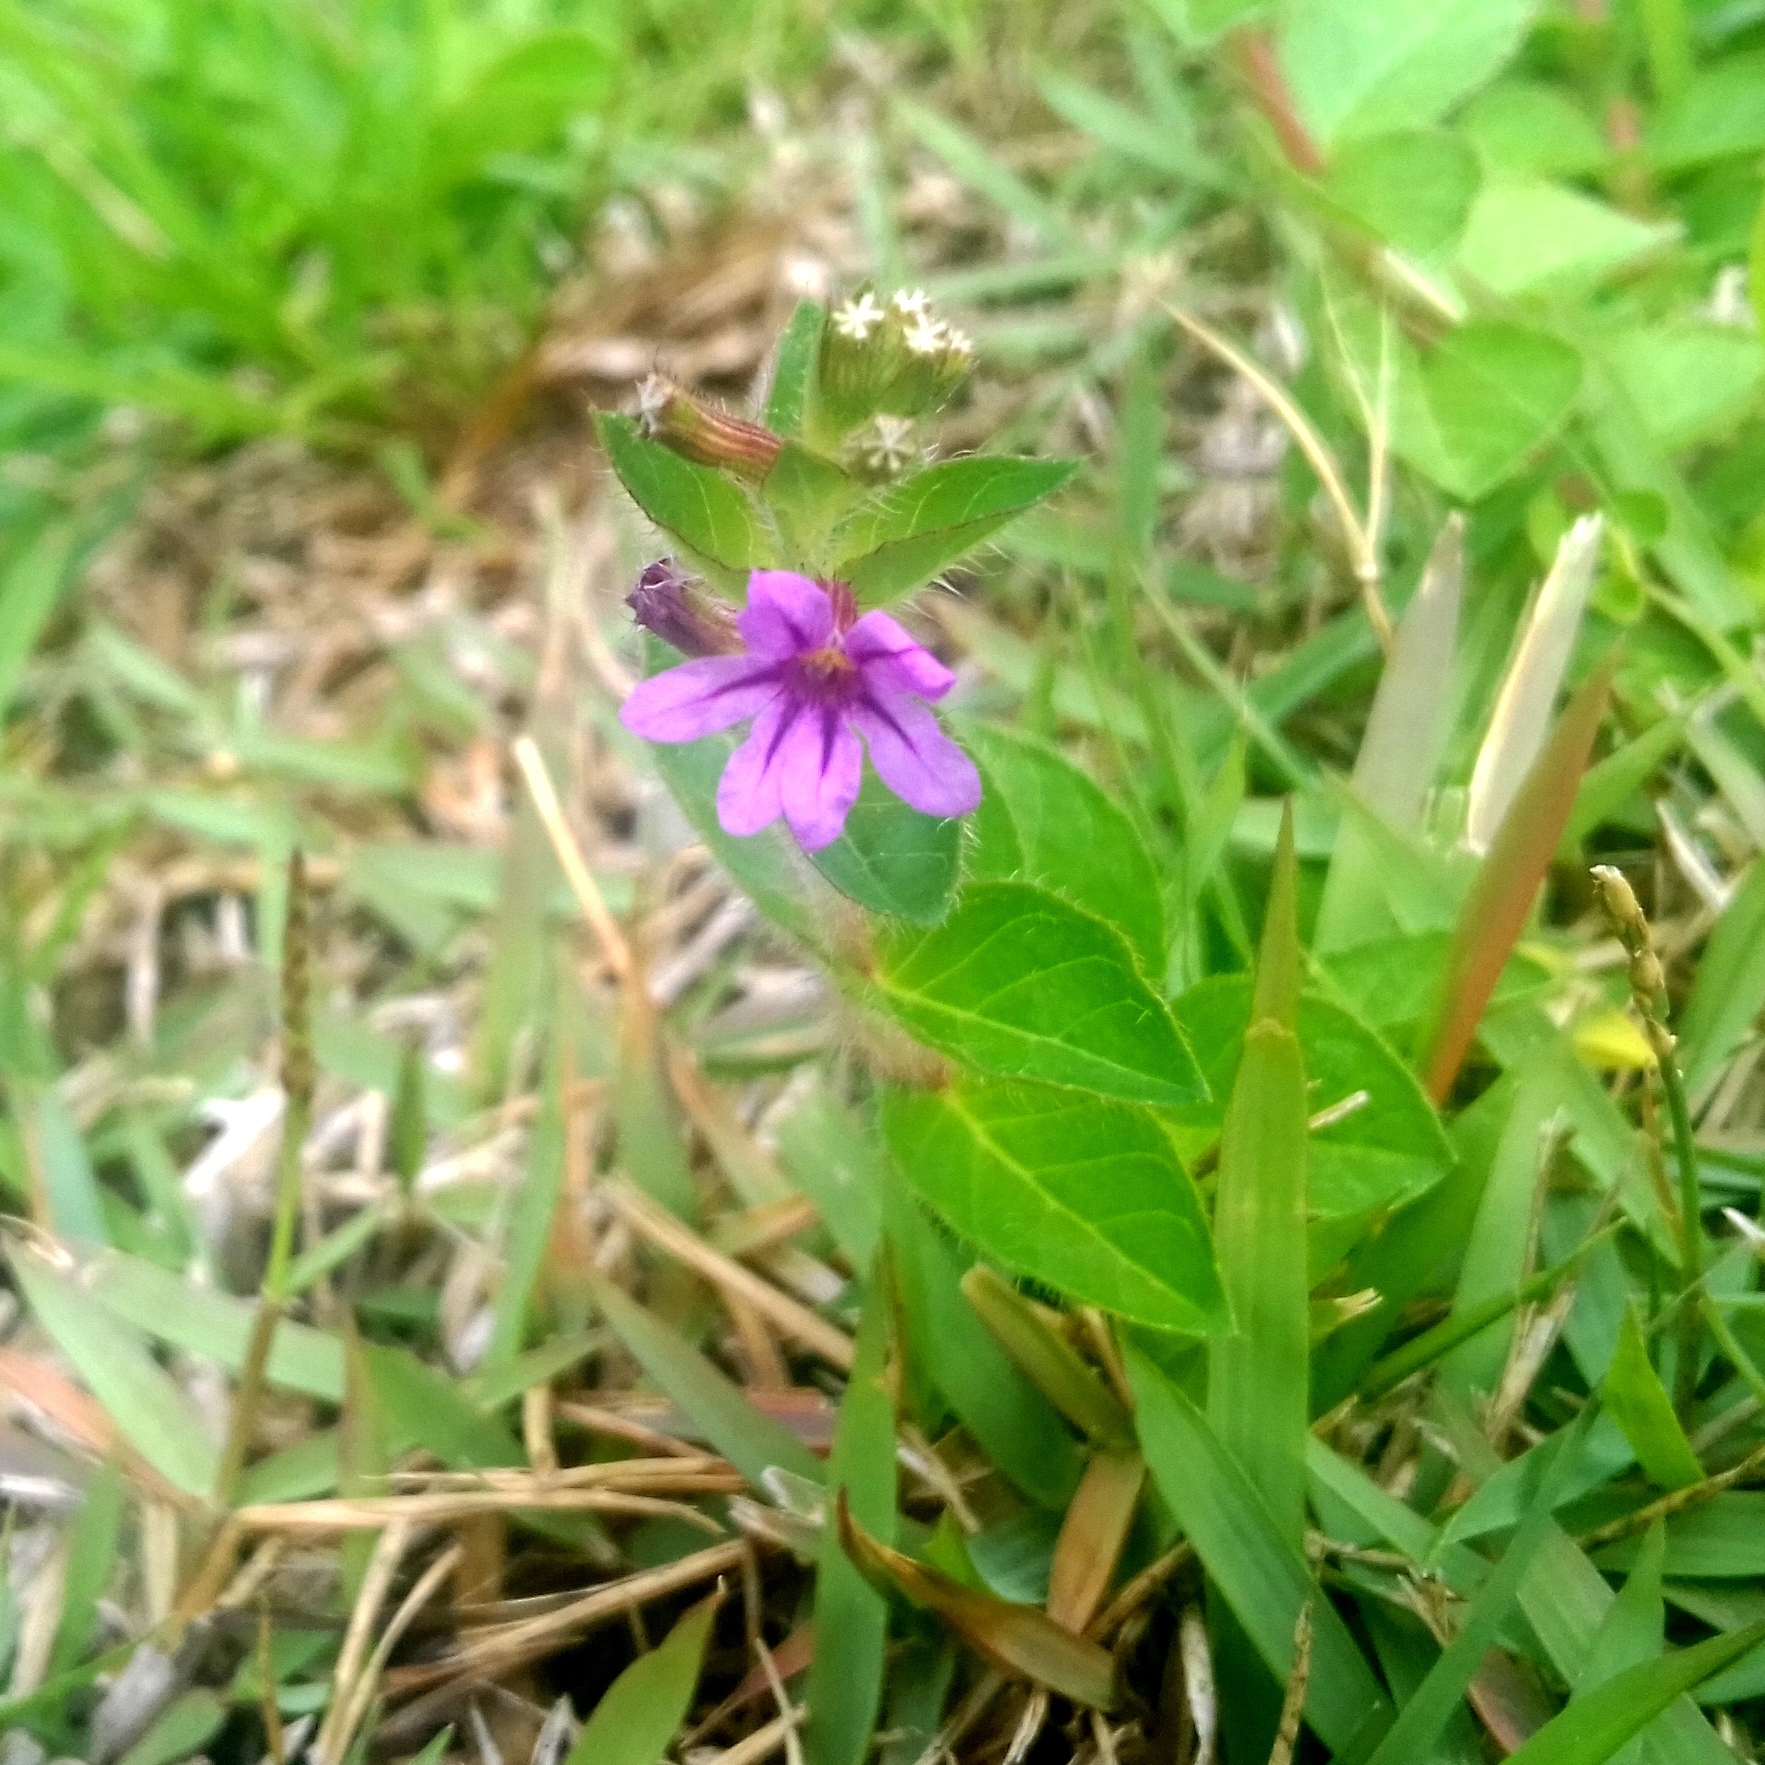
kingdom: Plantae
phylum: Tracheophyta
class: Magnoliopsida
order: Myrtales
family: Lythraceae
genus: Cuphea
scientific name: Cuphea calophylla
